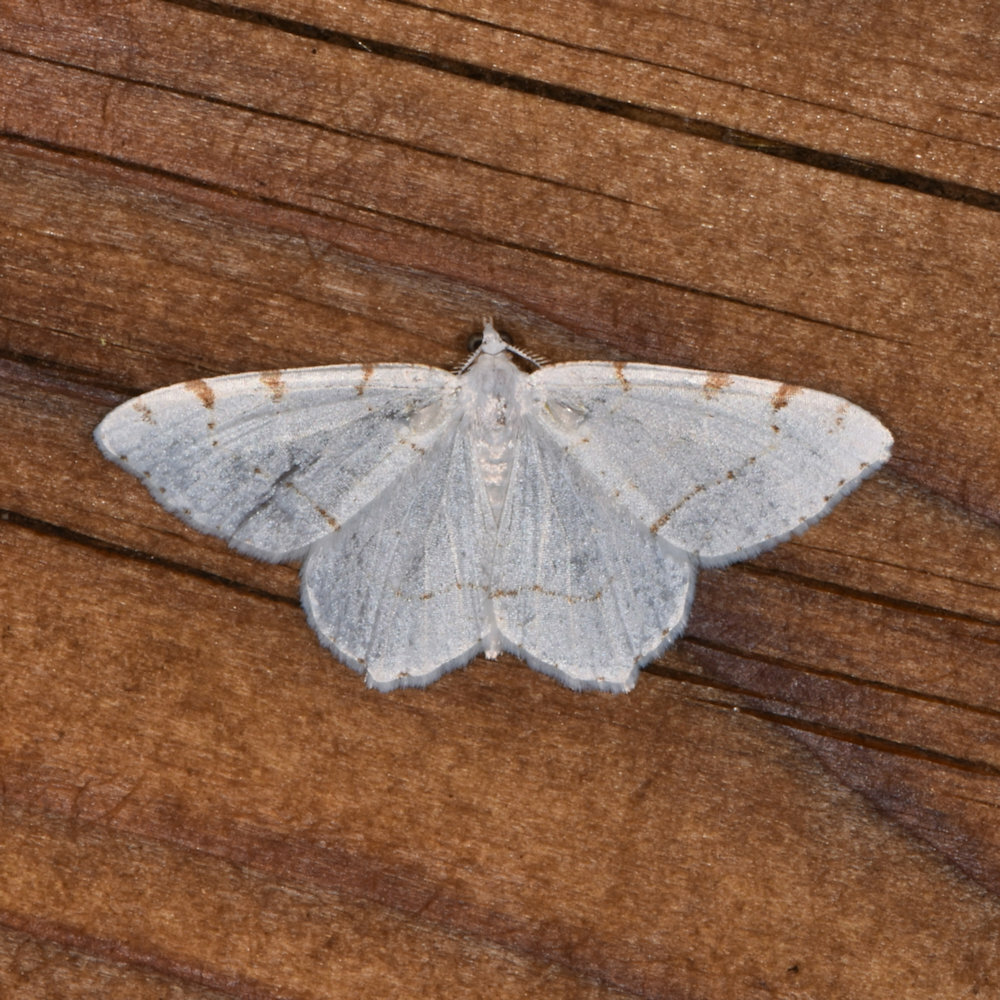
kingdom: Animalia
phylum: Arthropoda
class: Insecta
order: Lepidoptera
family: Geometridae
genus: Macaria
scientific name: Macaria pustularia
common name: Lesser maple spanworm moth
